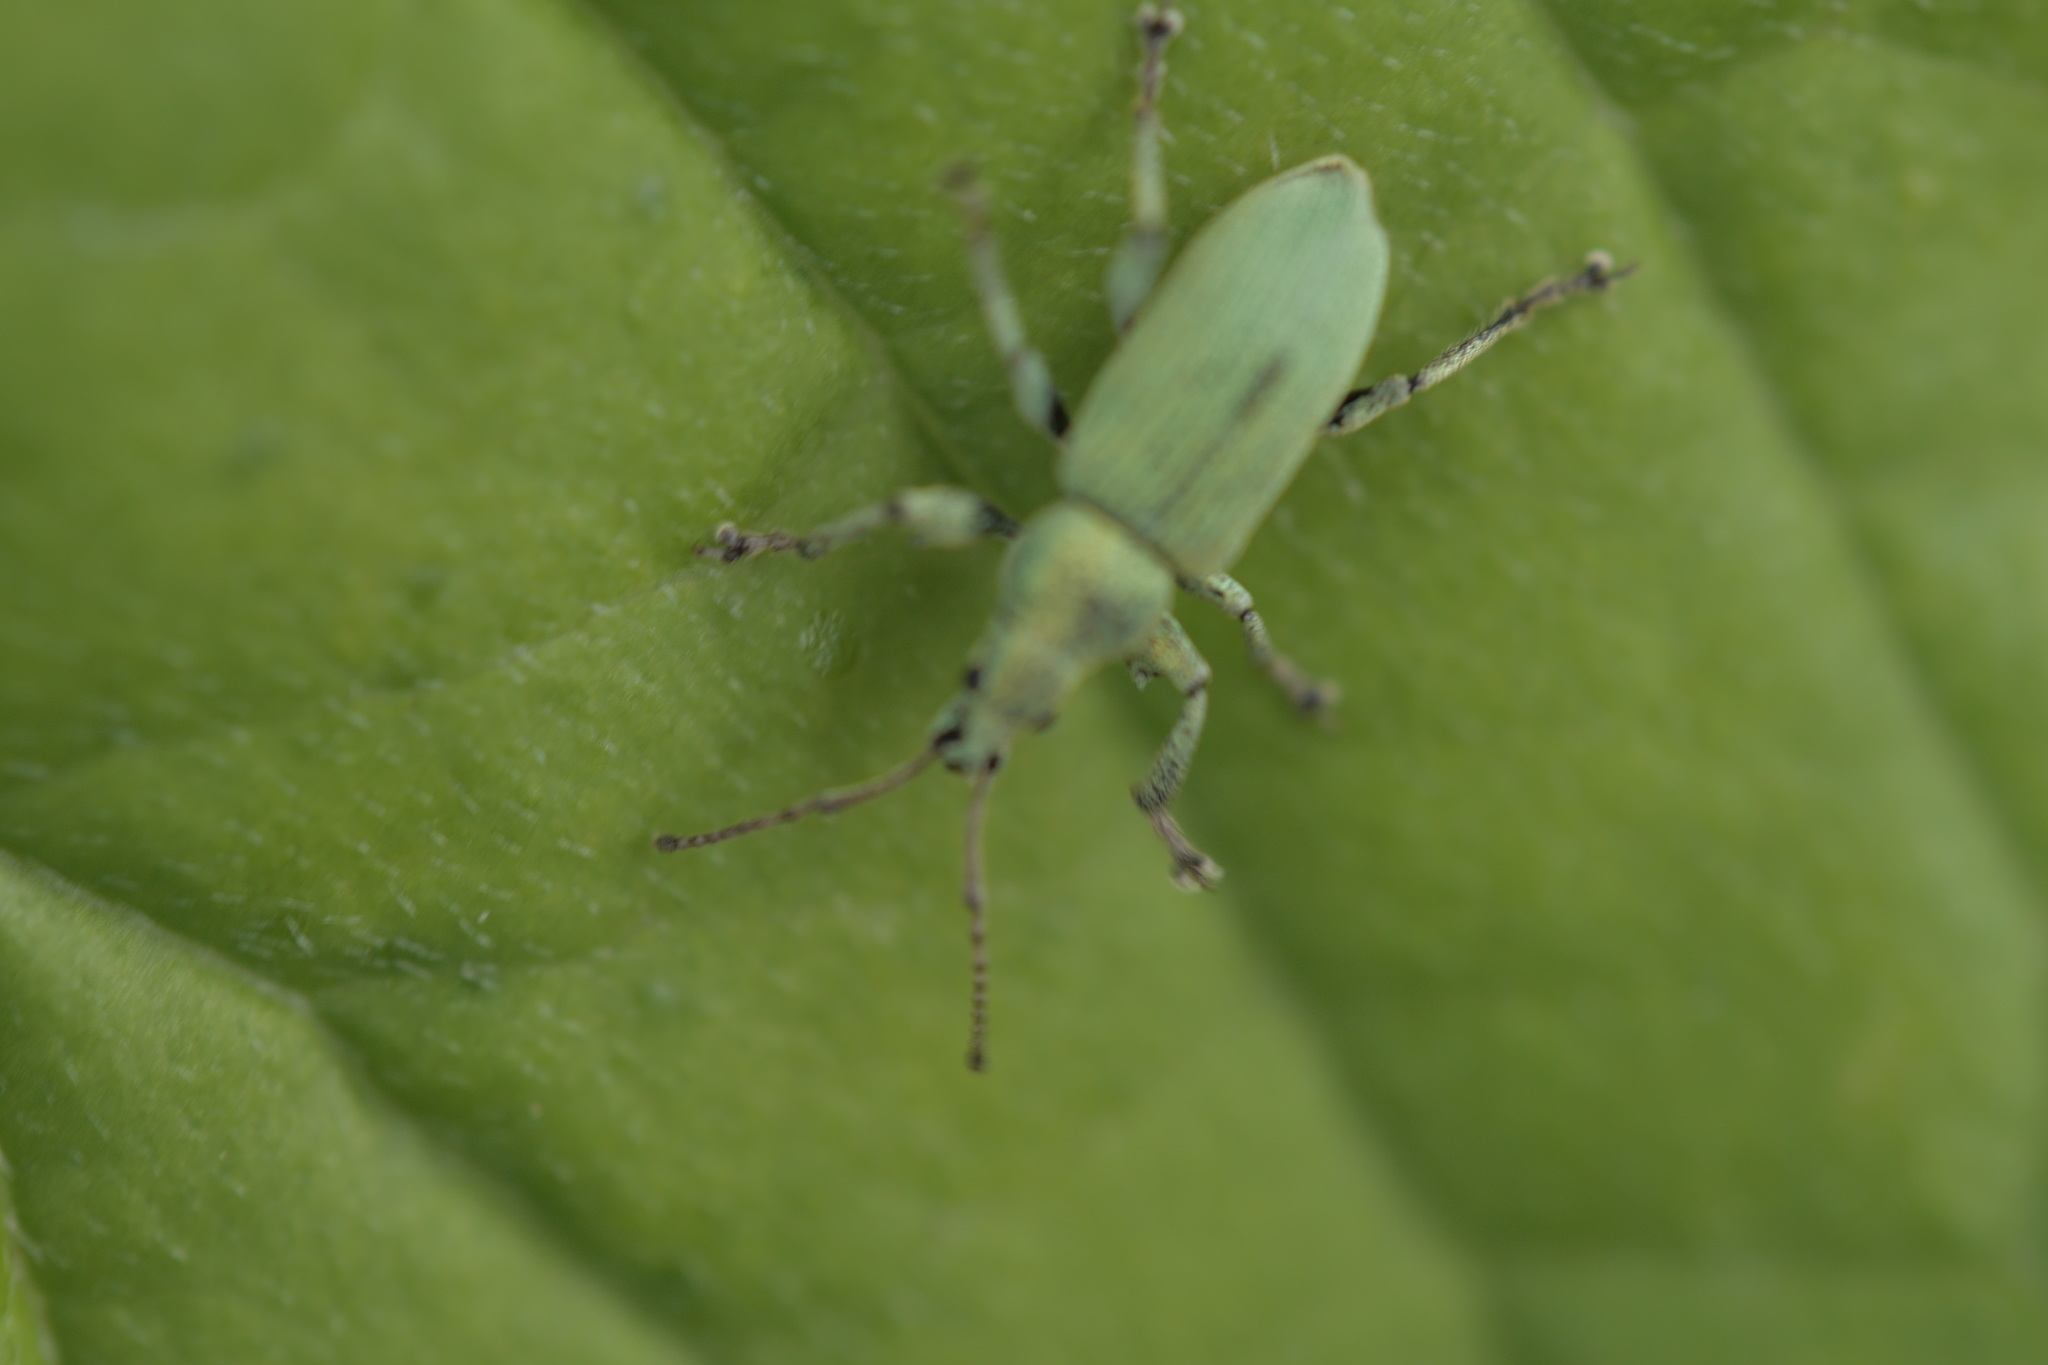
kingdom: Animalia
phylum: Arthropoda
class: Insecta
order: Coleoptera
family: Curculionidae
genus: Phyllobius
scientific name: Phyllobius maculicornis
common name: Green leaf weevil
